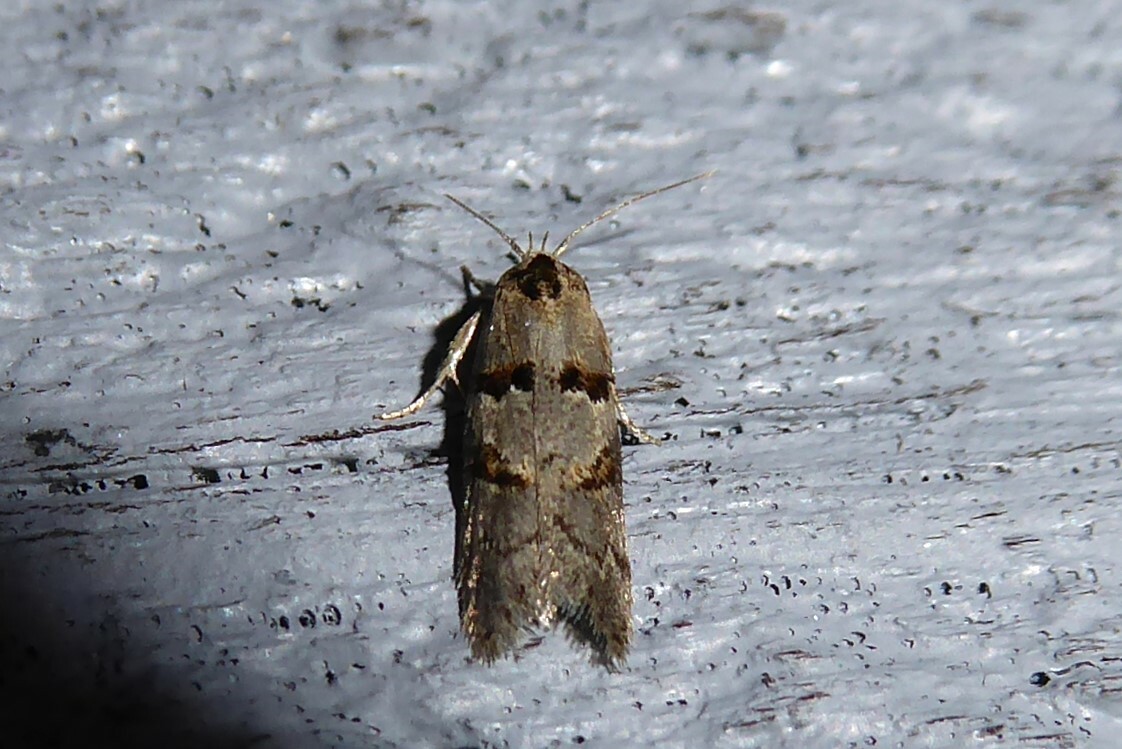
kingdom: Animalia
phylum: Arthropoda
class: Insecta
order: Lepidoptera
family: Oecophoridae
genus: Trachypepla
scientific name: Trachypepla contritella
